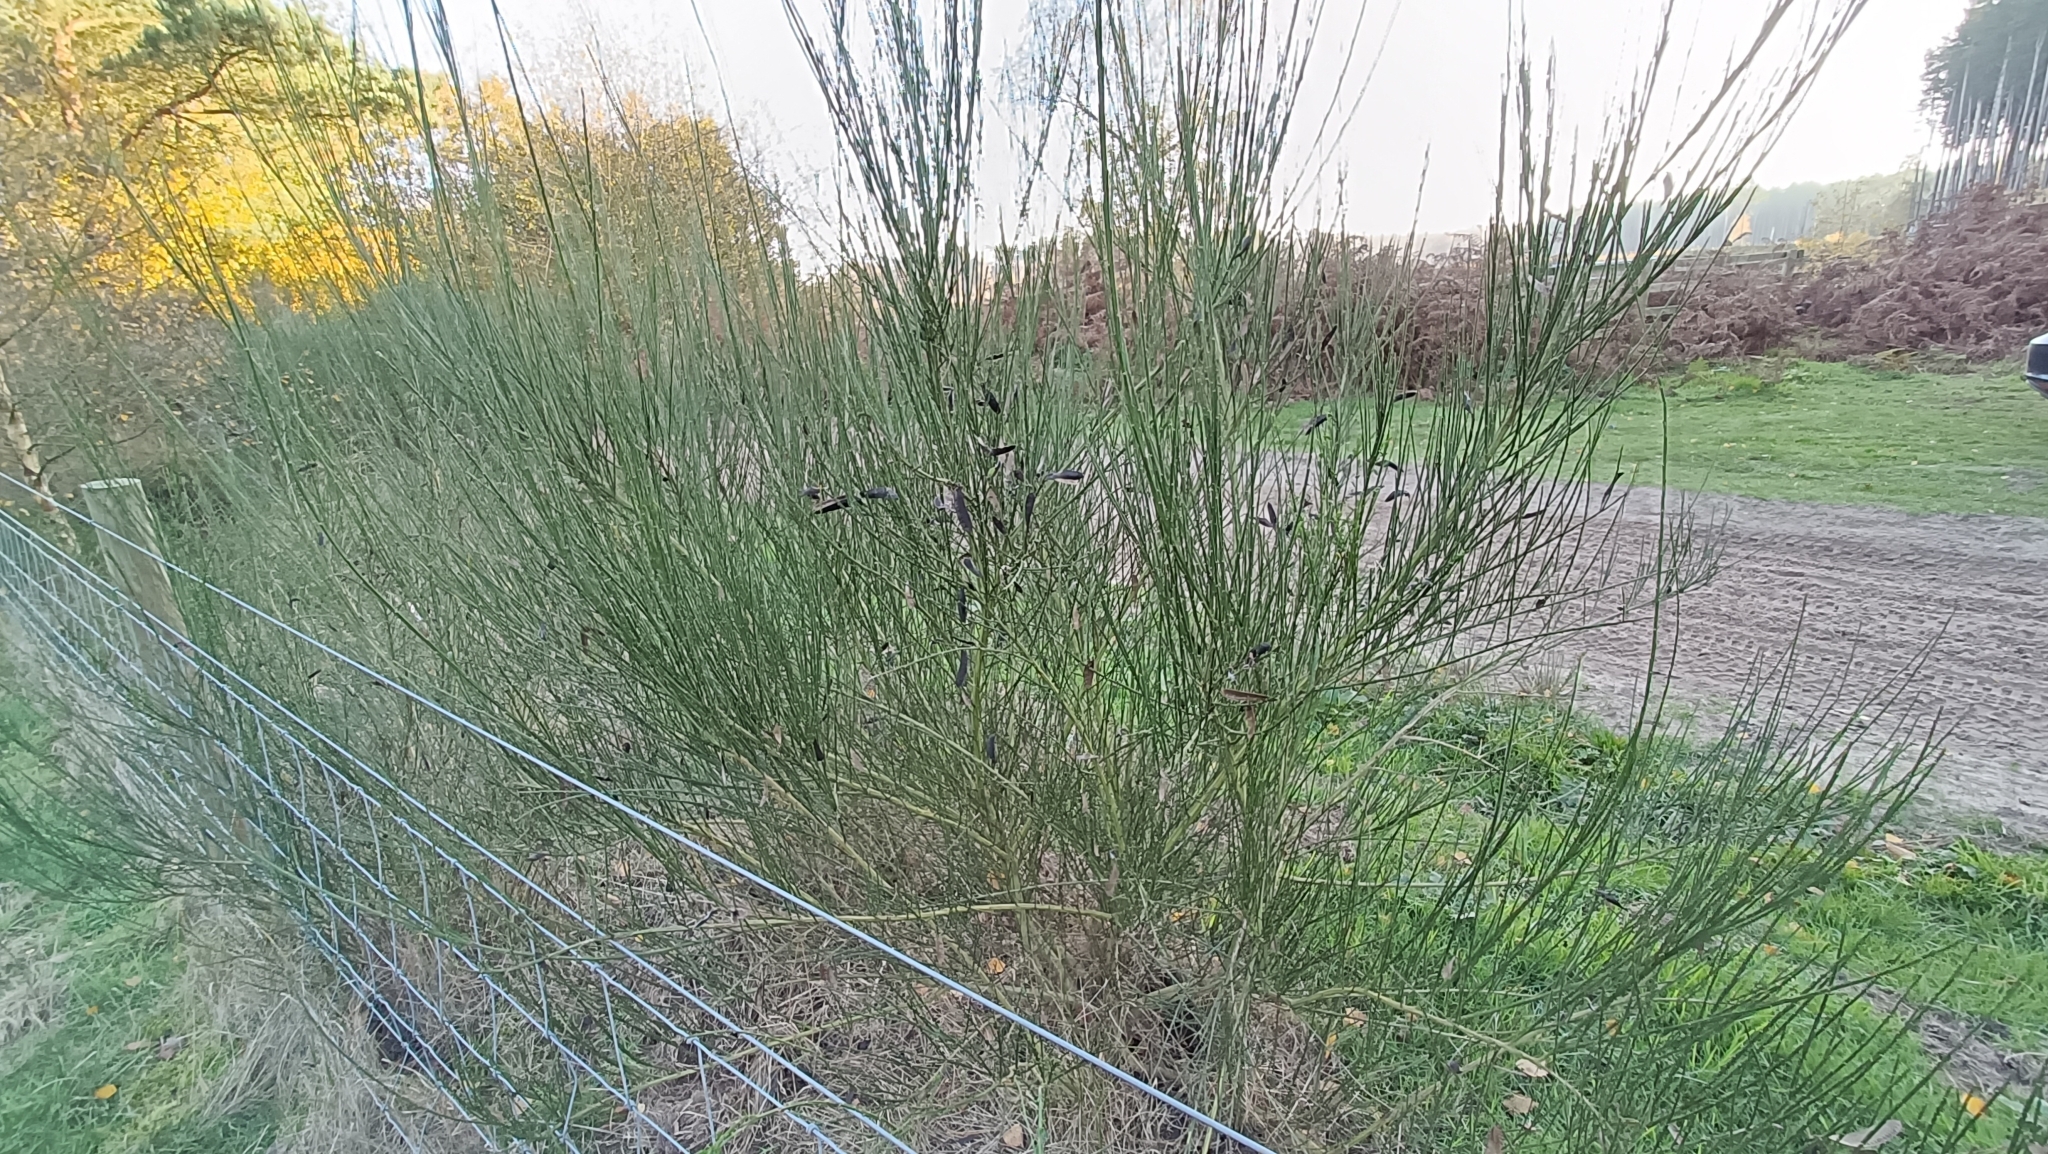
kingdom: Plantae
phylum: Tracheophyta
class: Magnoliopsida
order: Fabales
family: Fabaceae
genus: Cytisus
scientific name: Cytisus scoparius
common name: Scotch broom
